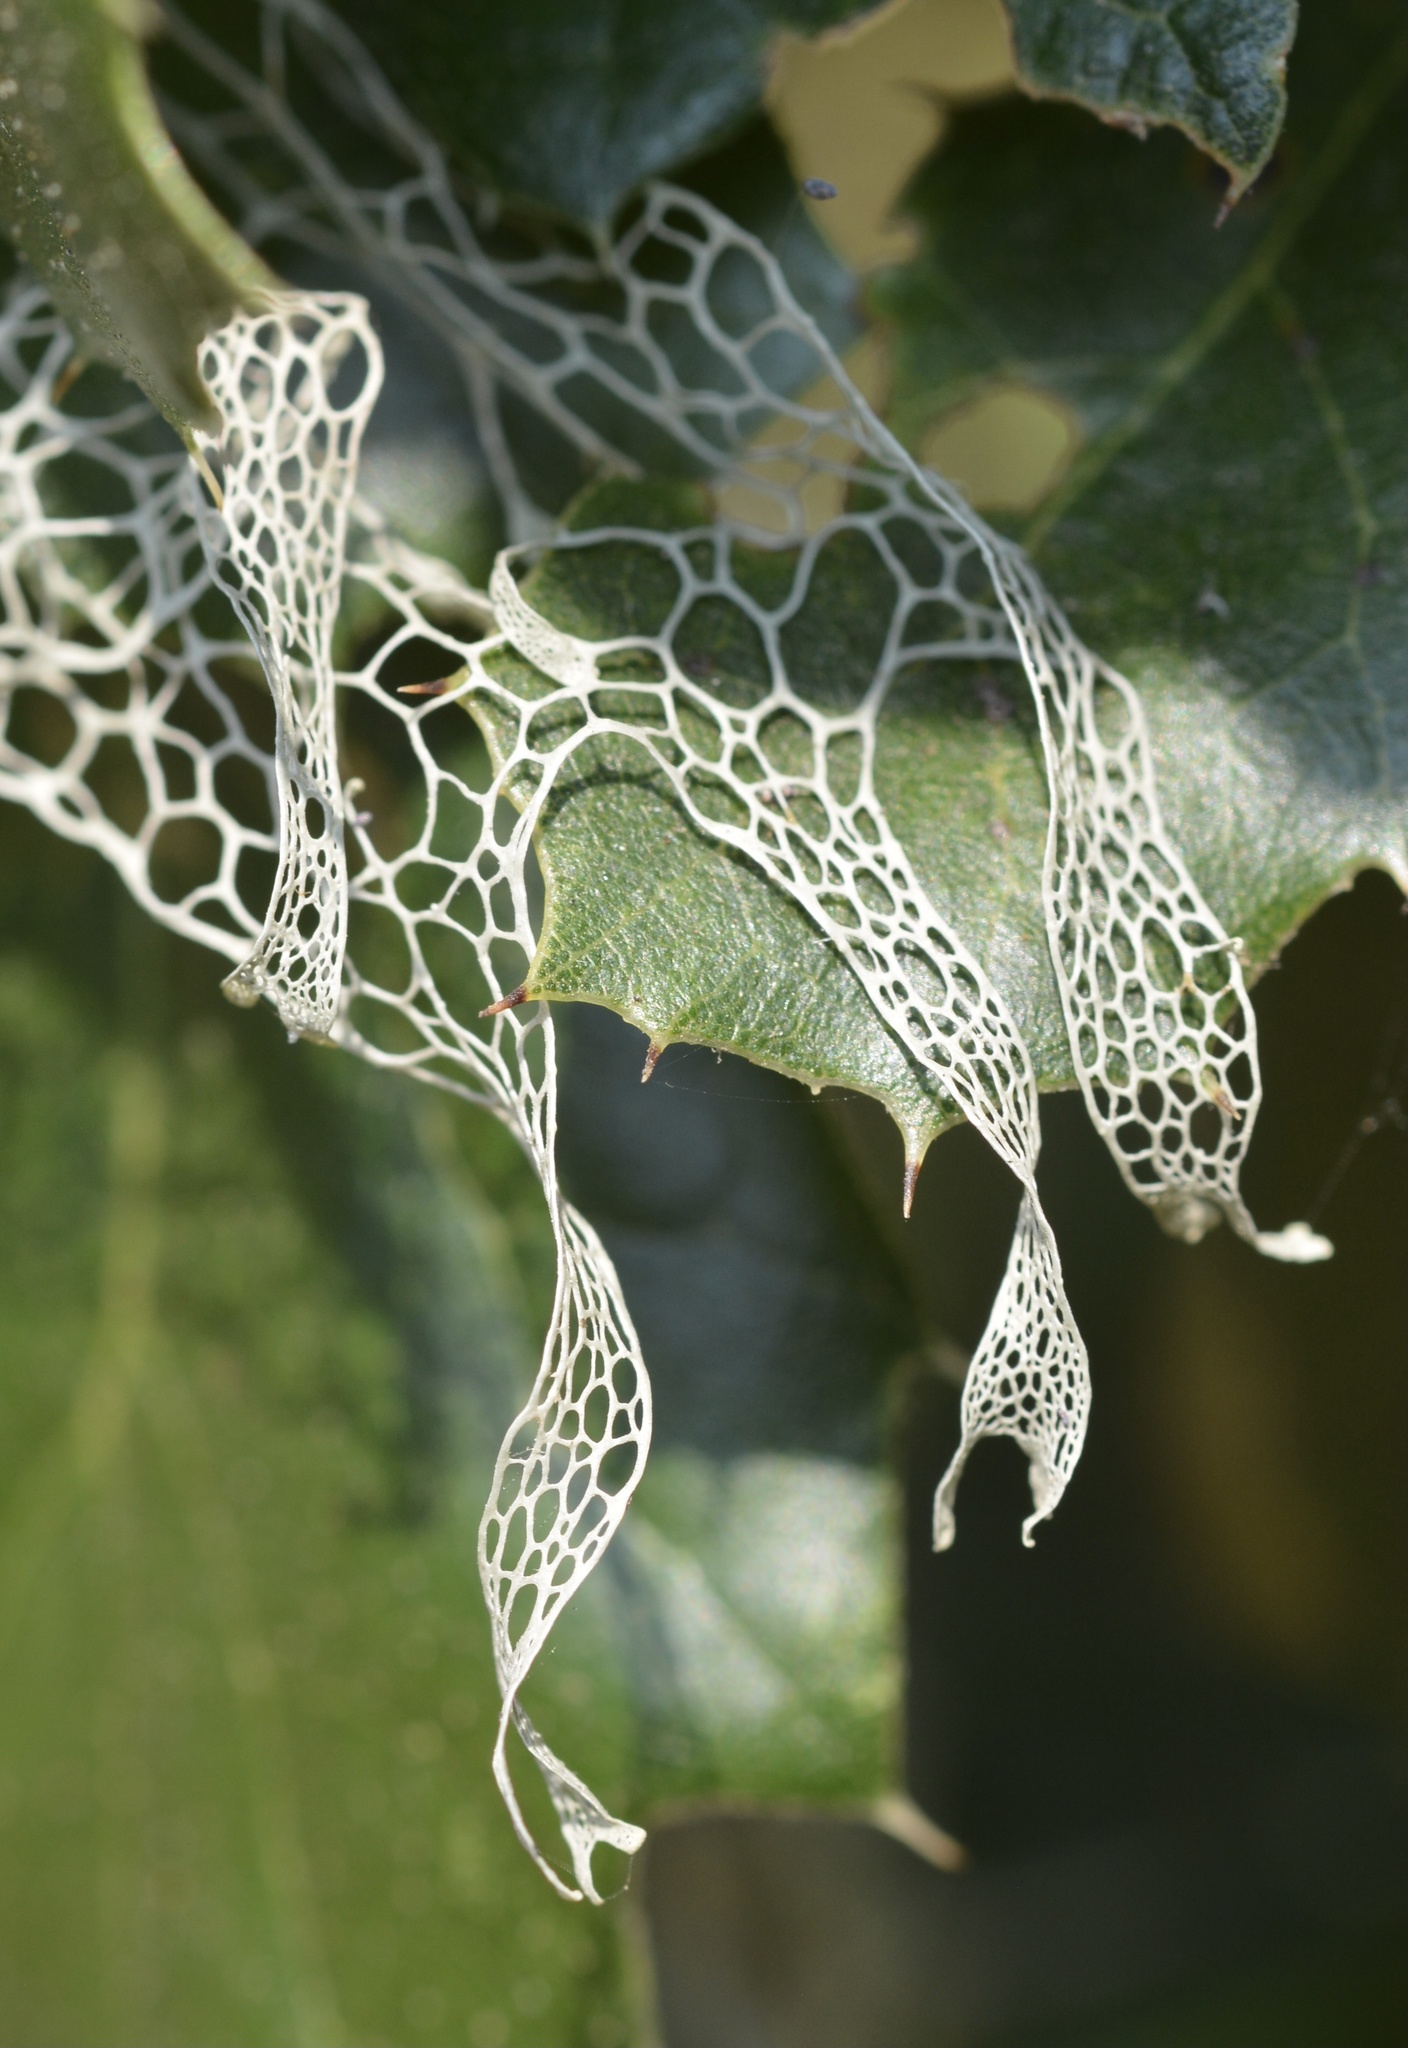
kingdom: Fungi
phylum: Ascomycota
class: Lecanoromycetes
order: Lecanorales
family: Ramalinaceae
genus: Ramalina
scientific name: Ramalina menziesii
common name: Lace lichen
